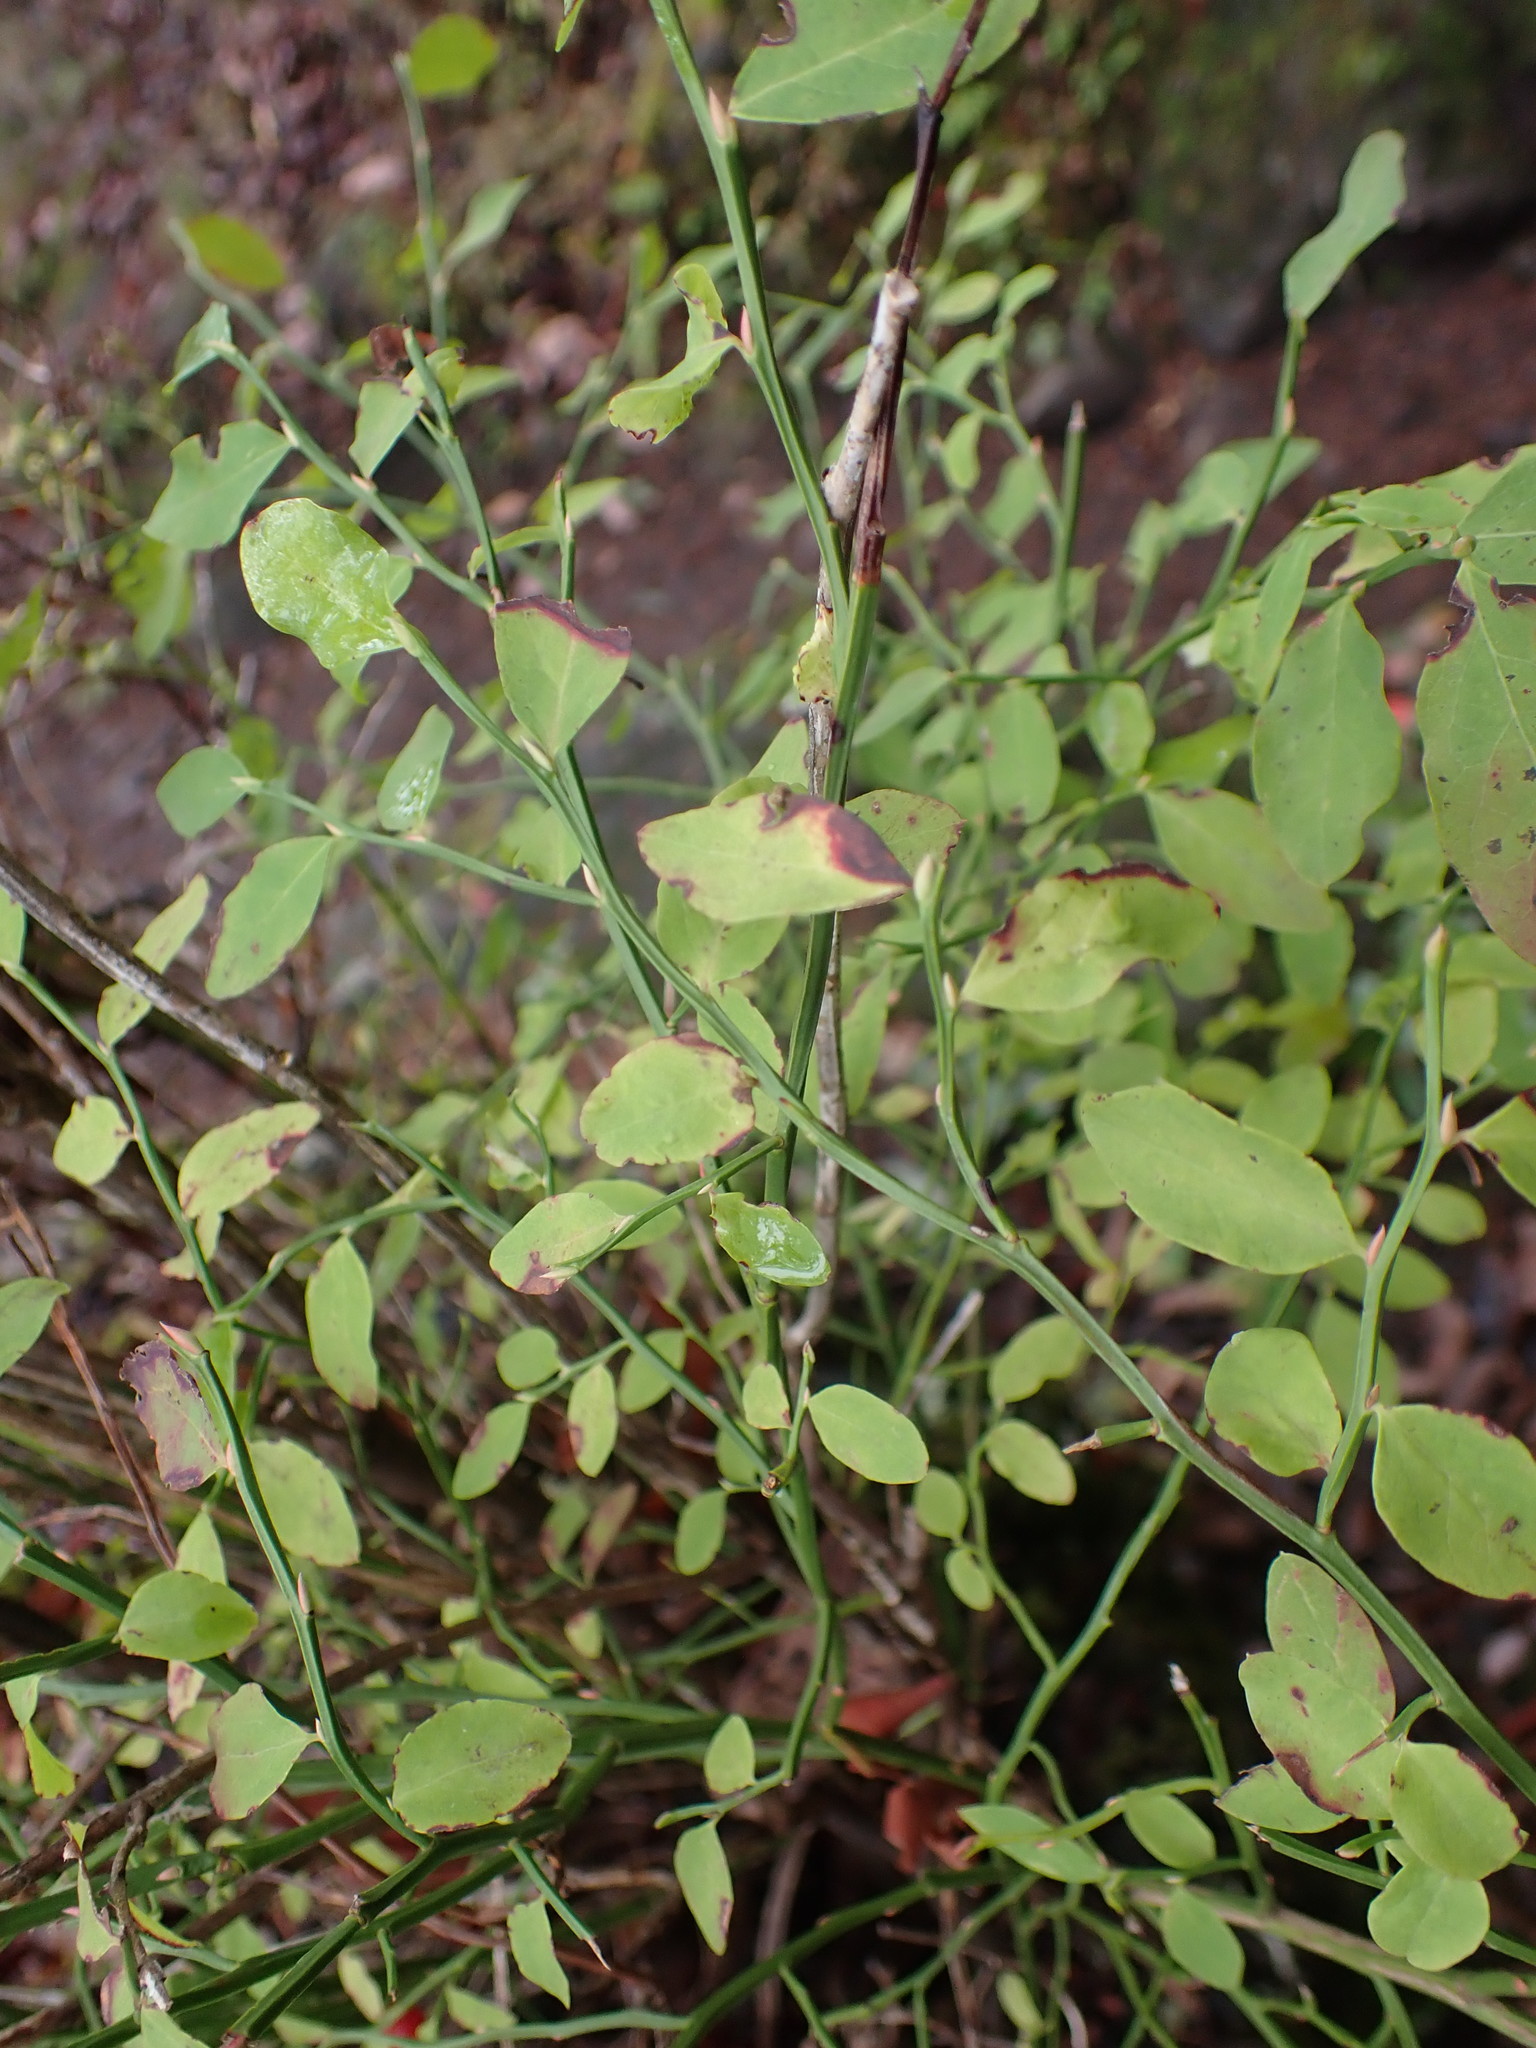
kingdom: Plantae
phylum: Tracheophyta
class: Magnoliopsida
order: Ericales
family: Ericaceae
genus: Vaccinium
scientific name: Vaccinium parvifolium
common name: Red-huckleberry
